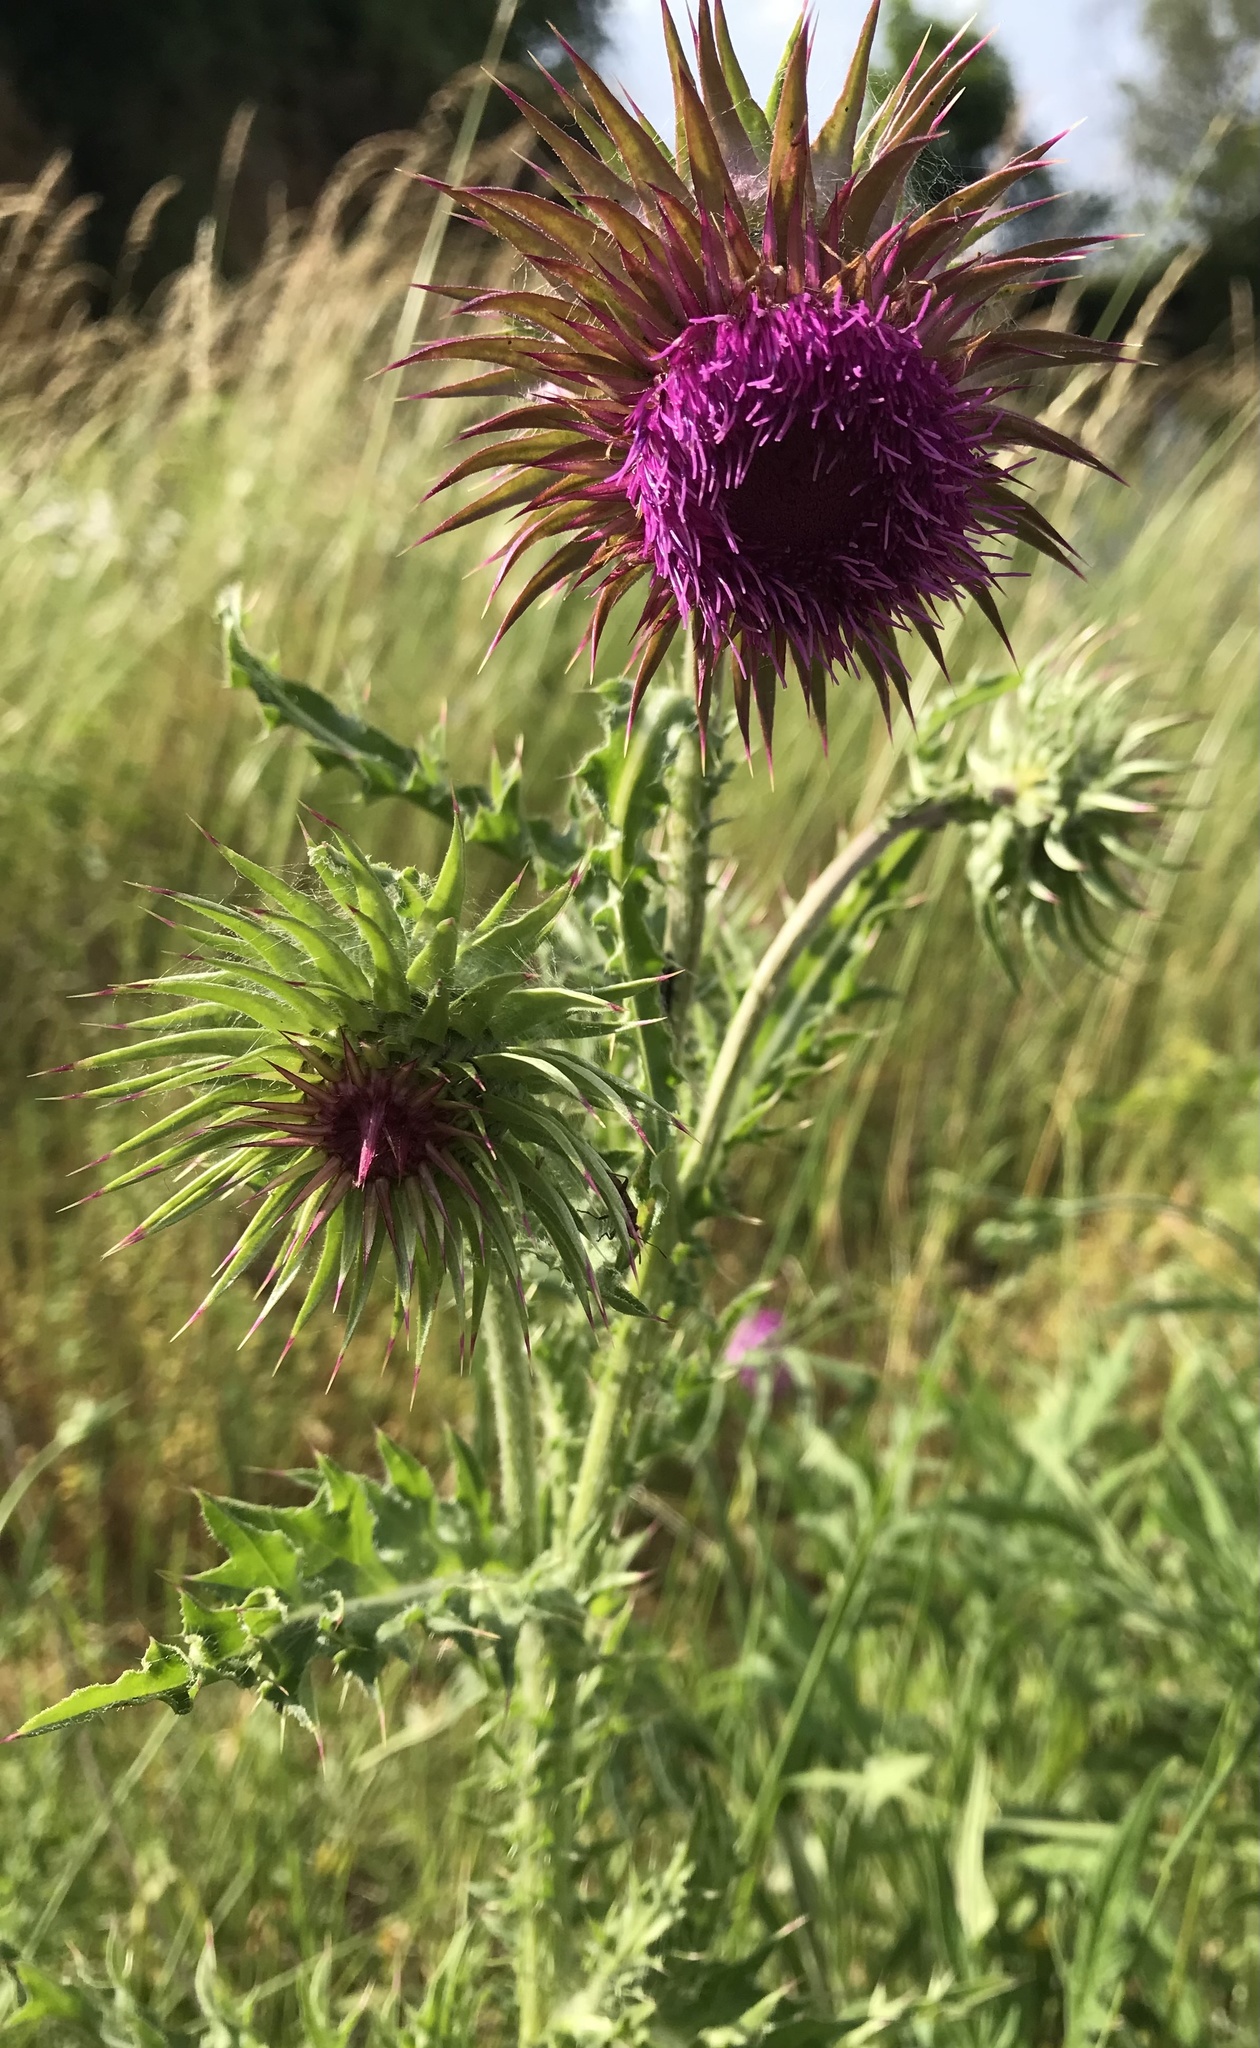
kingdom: Plantae
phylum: Tracheophyta
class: Magnoliopsida
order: Asterales
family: Asteraceae
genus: Carduus
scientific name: Carduus nutans
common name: Musk thistle
